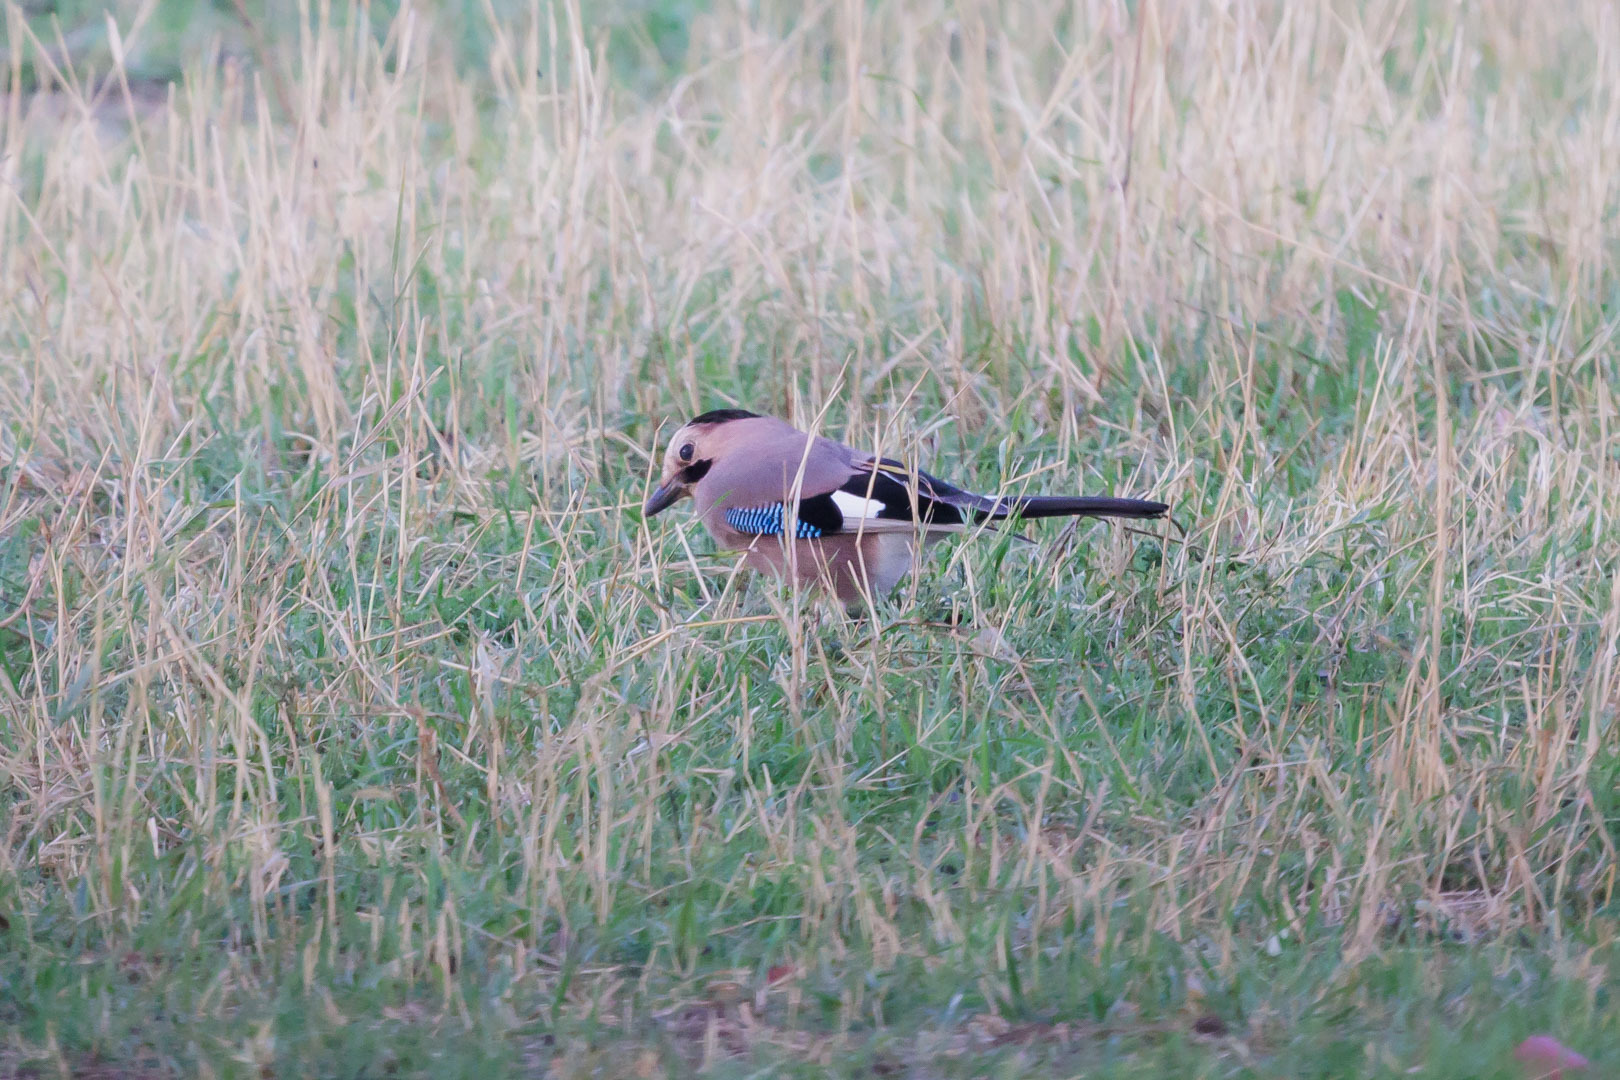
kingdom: Animalia
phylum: Chordata
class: Aves
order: Passeriformes
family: Corvidae
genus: Garrulus
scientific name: Garrulus glandarius
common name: Eurasian jay
